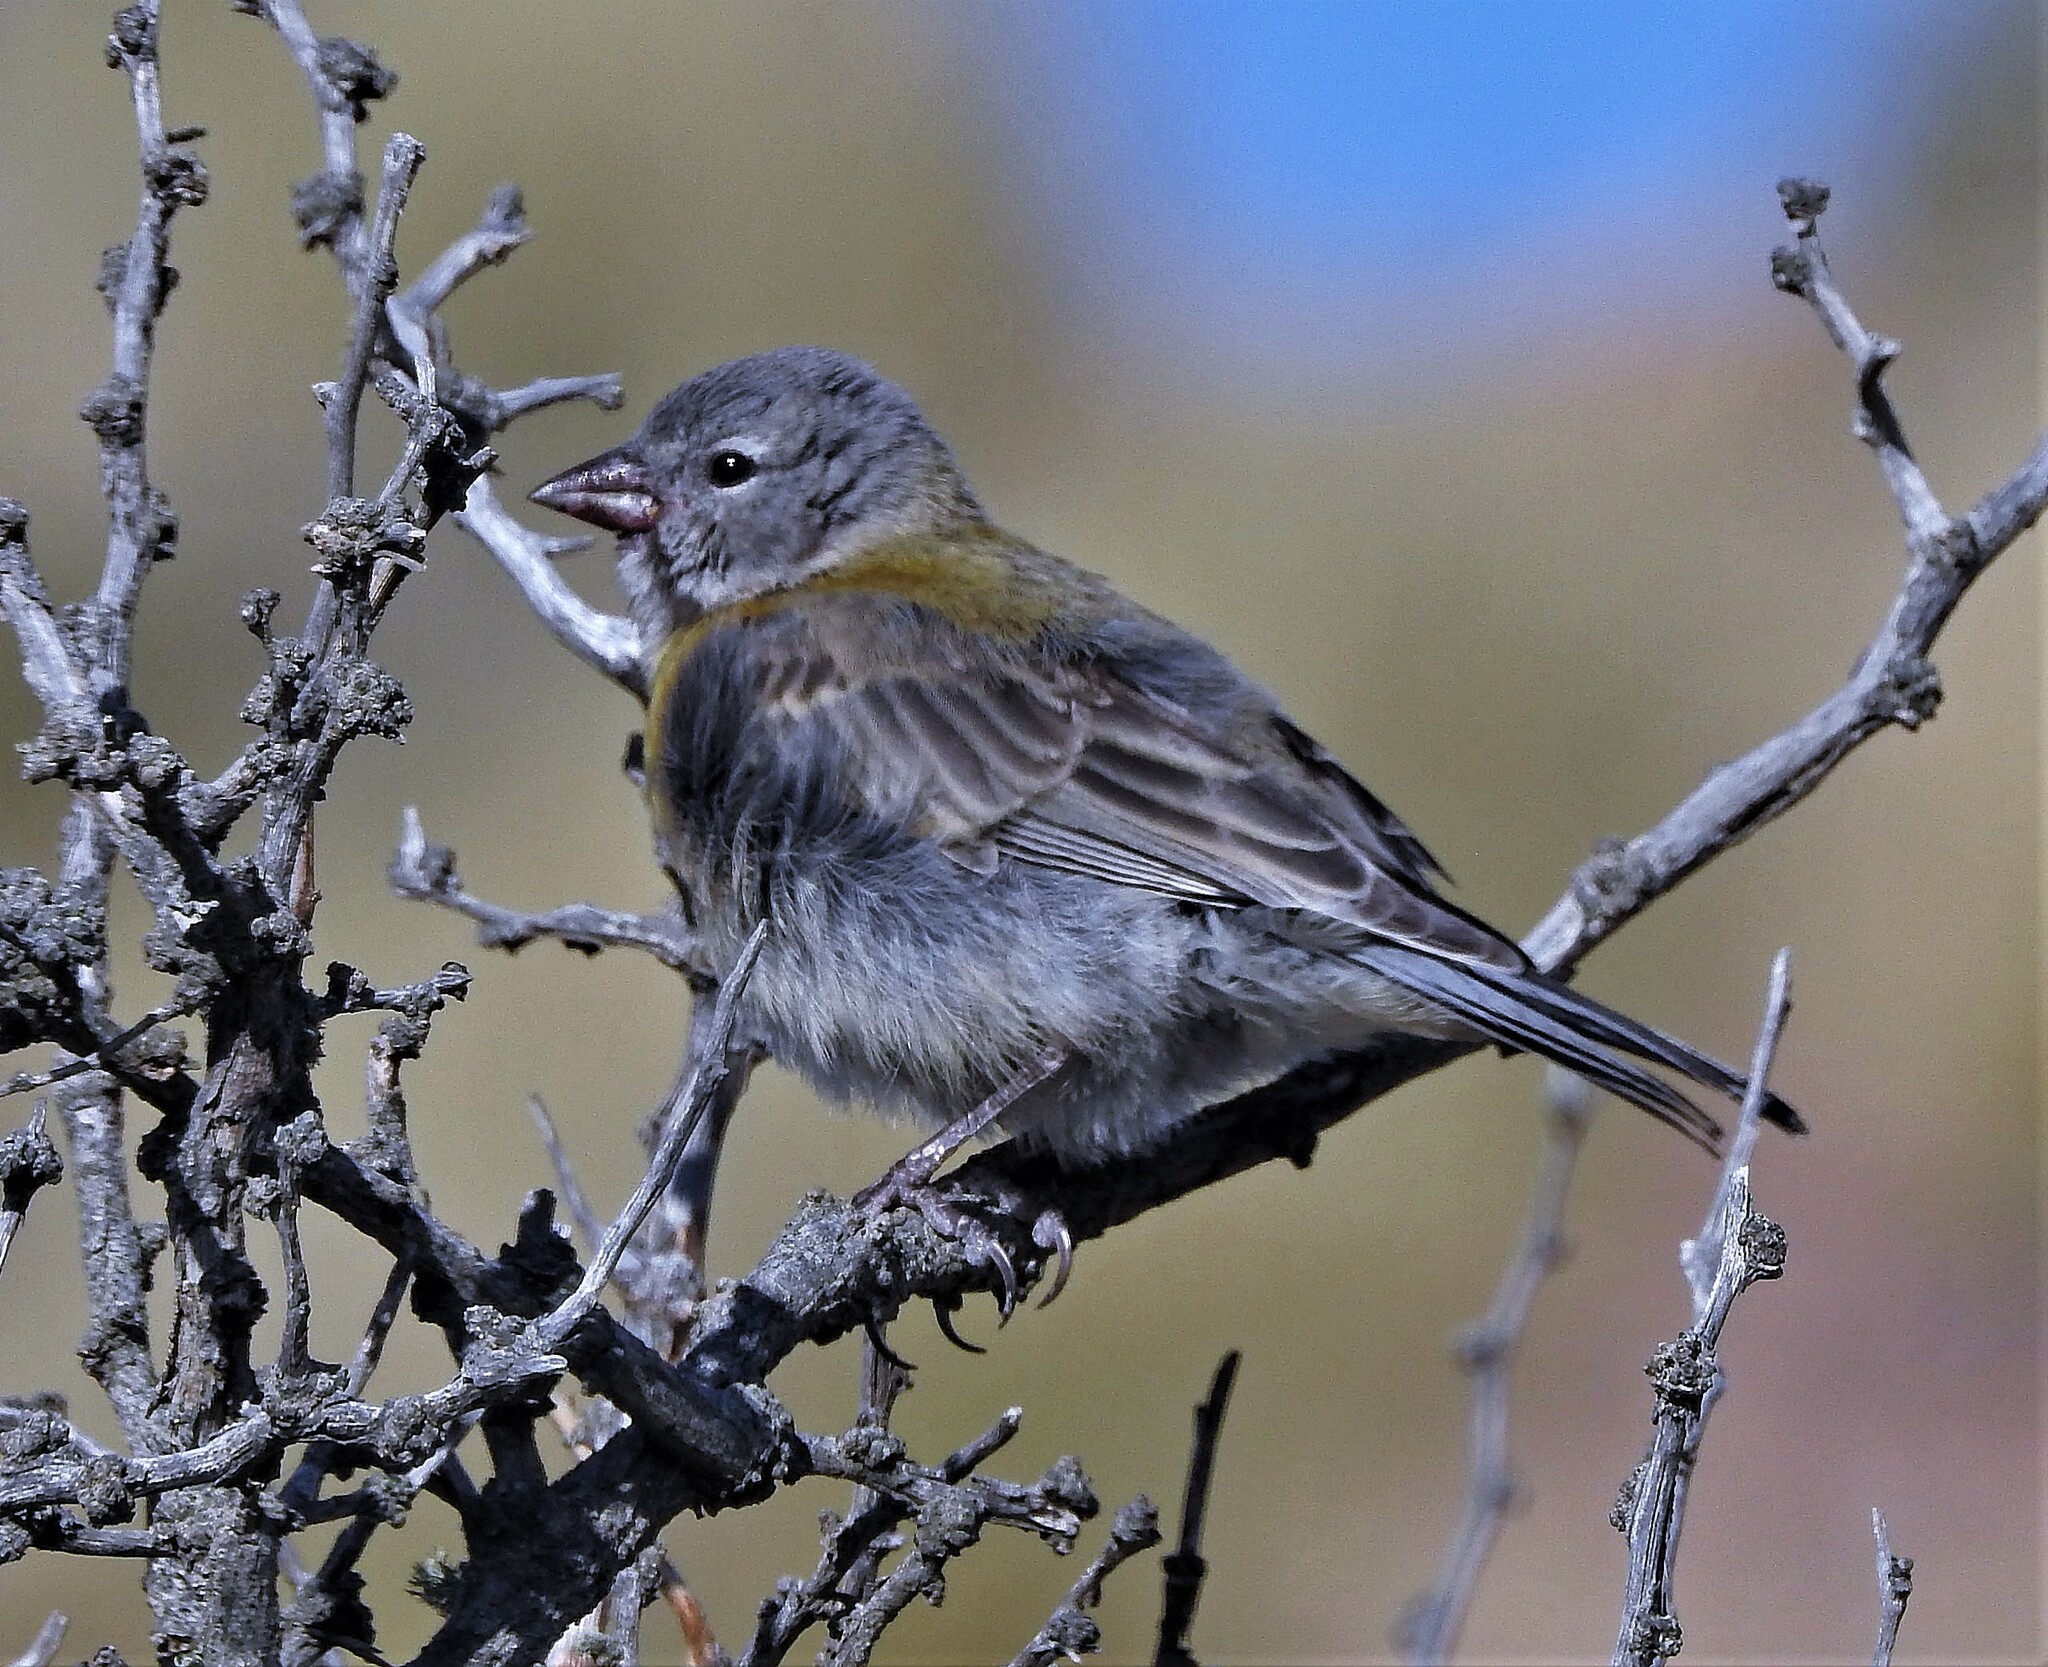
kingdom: Animalia
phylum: Chordata
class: Aves
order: Passeriformes
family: Thraupidae
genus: Phrygilus
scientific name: Phrygilus gayi
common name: Grey-hooded sierra finch
